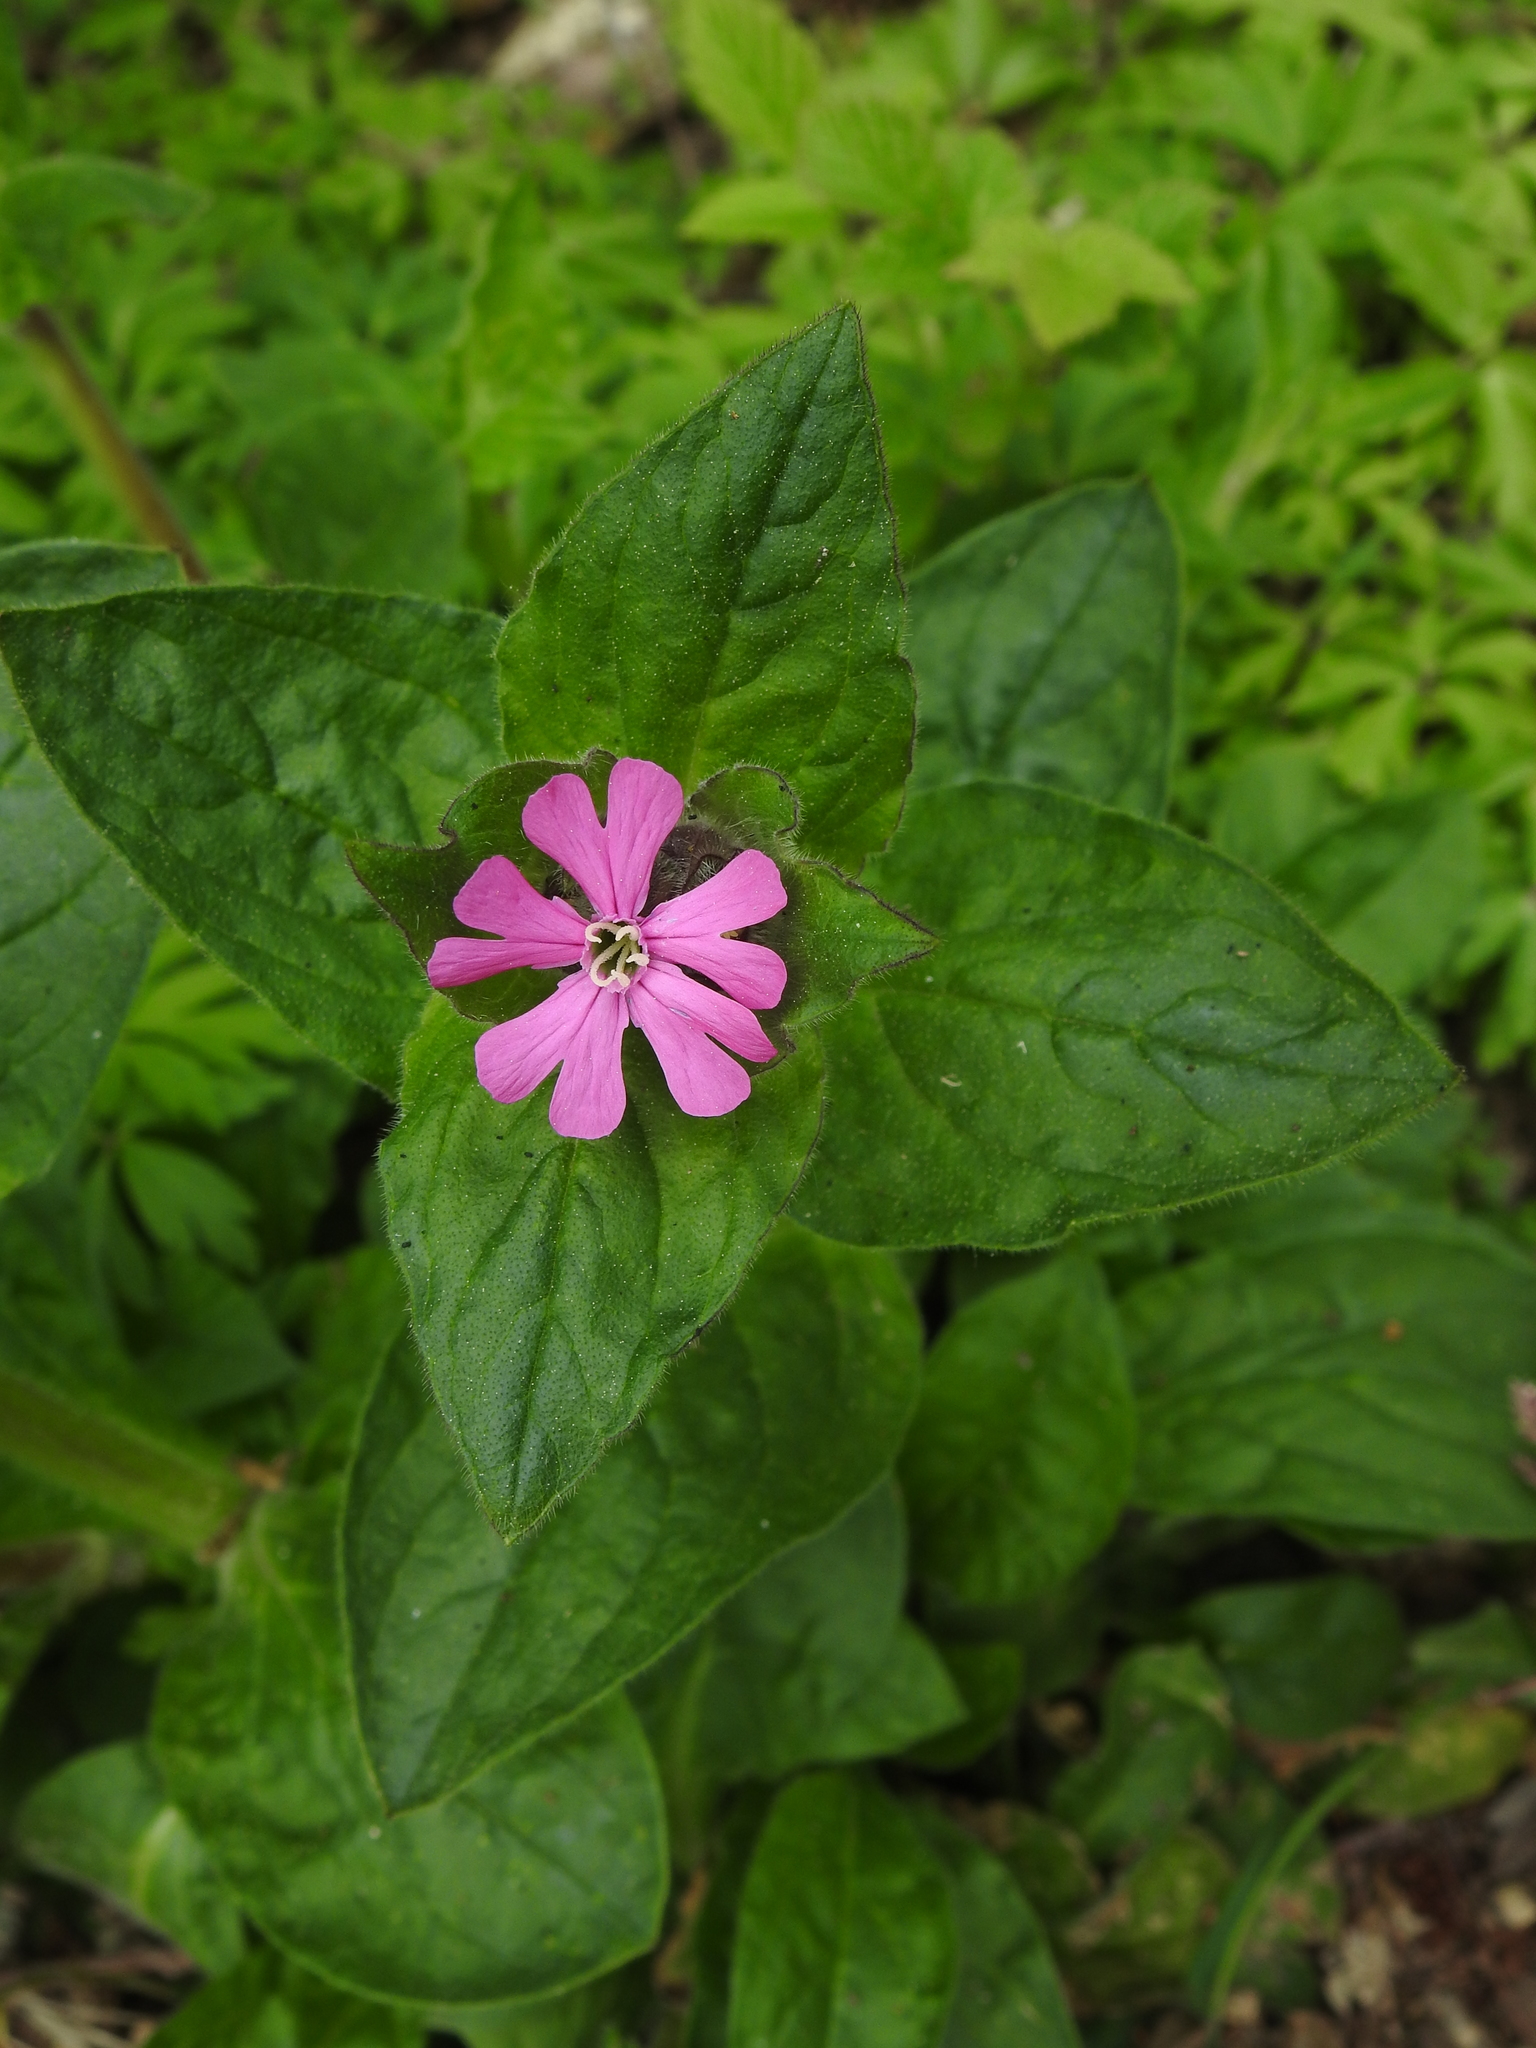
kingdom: Plantae
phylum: Tracheophyta
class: Magnoliopsida
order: Caryophyllales
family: Caryophyllaceae
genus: Silene
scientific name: Silene dioica
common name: Red campion
